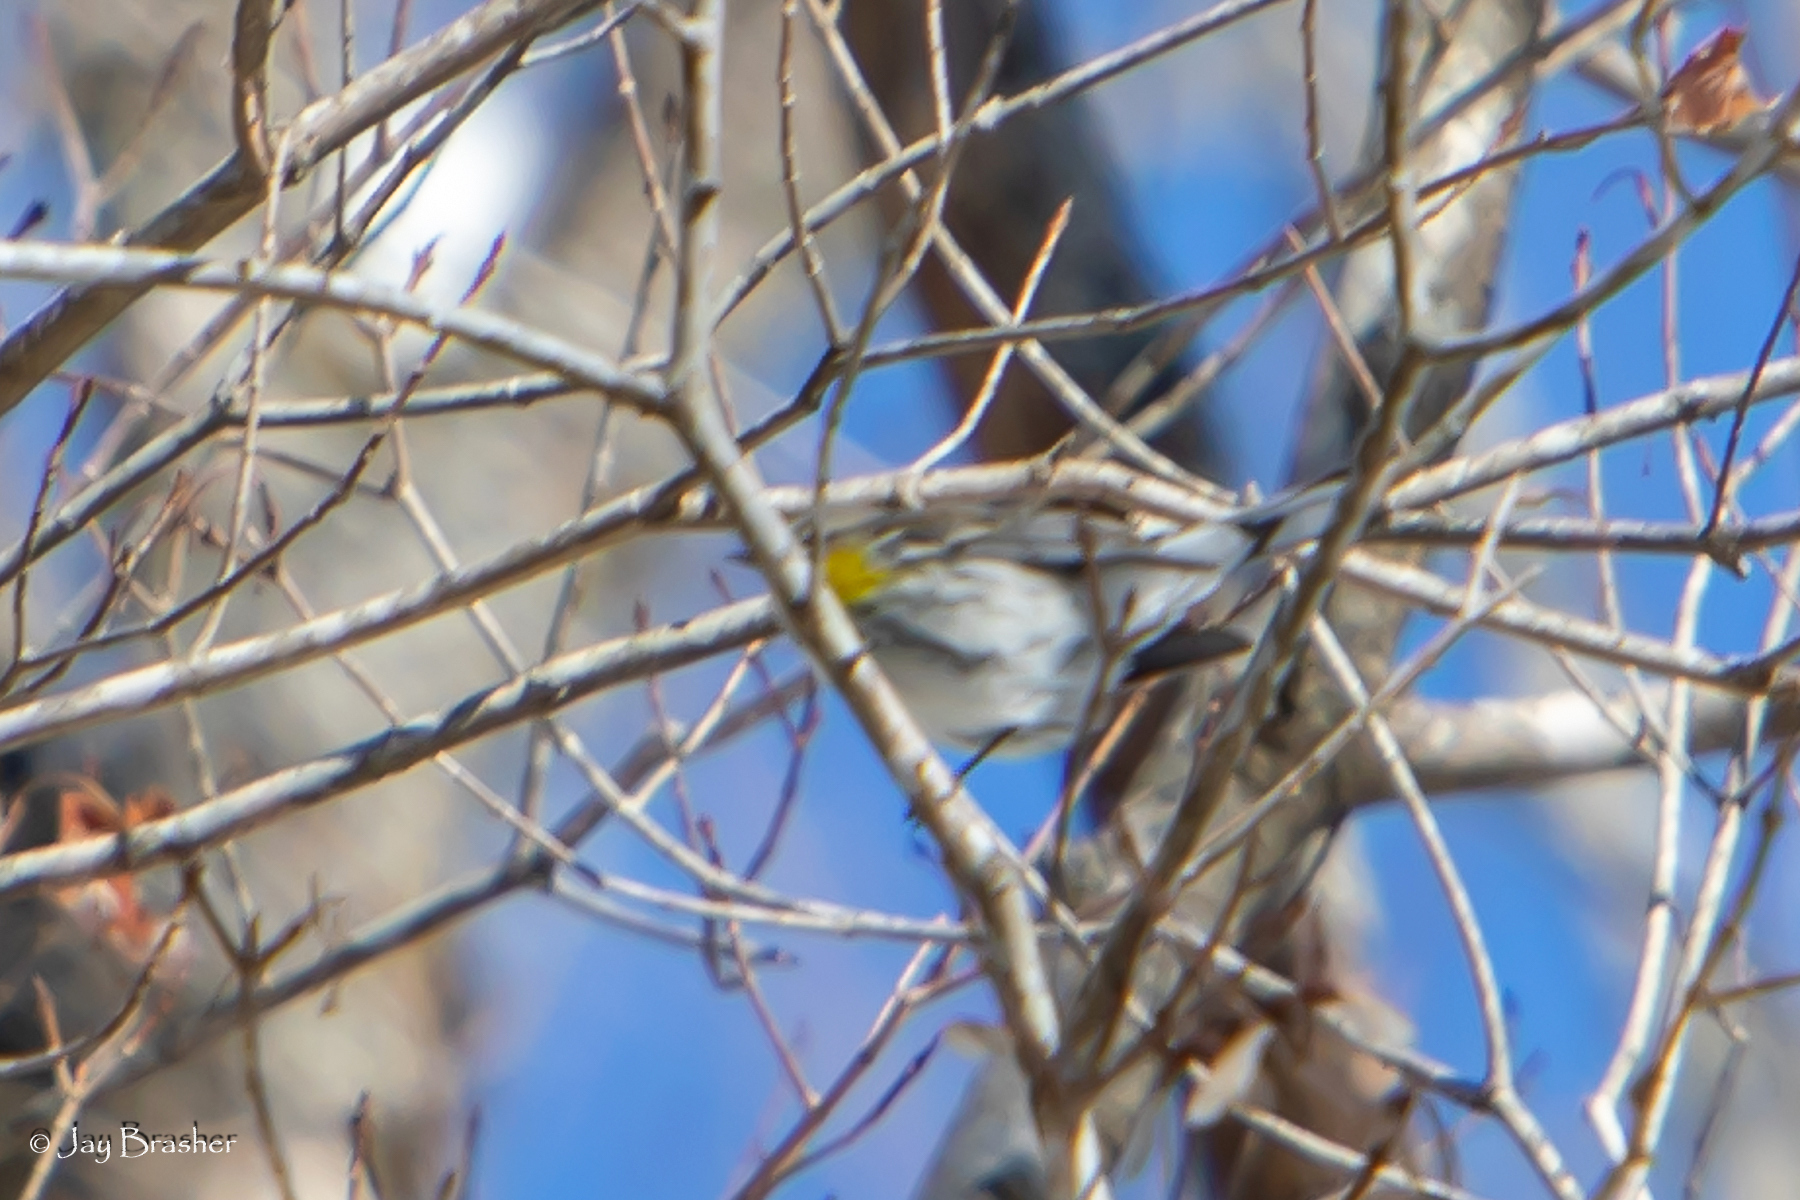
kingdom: Animalia
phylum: Chordata
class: Aves
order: Passeriformes
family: Parulidae
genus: Setophaga
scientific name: Setophaga coronata
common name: Myrtle warbler
